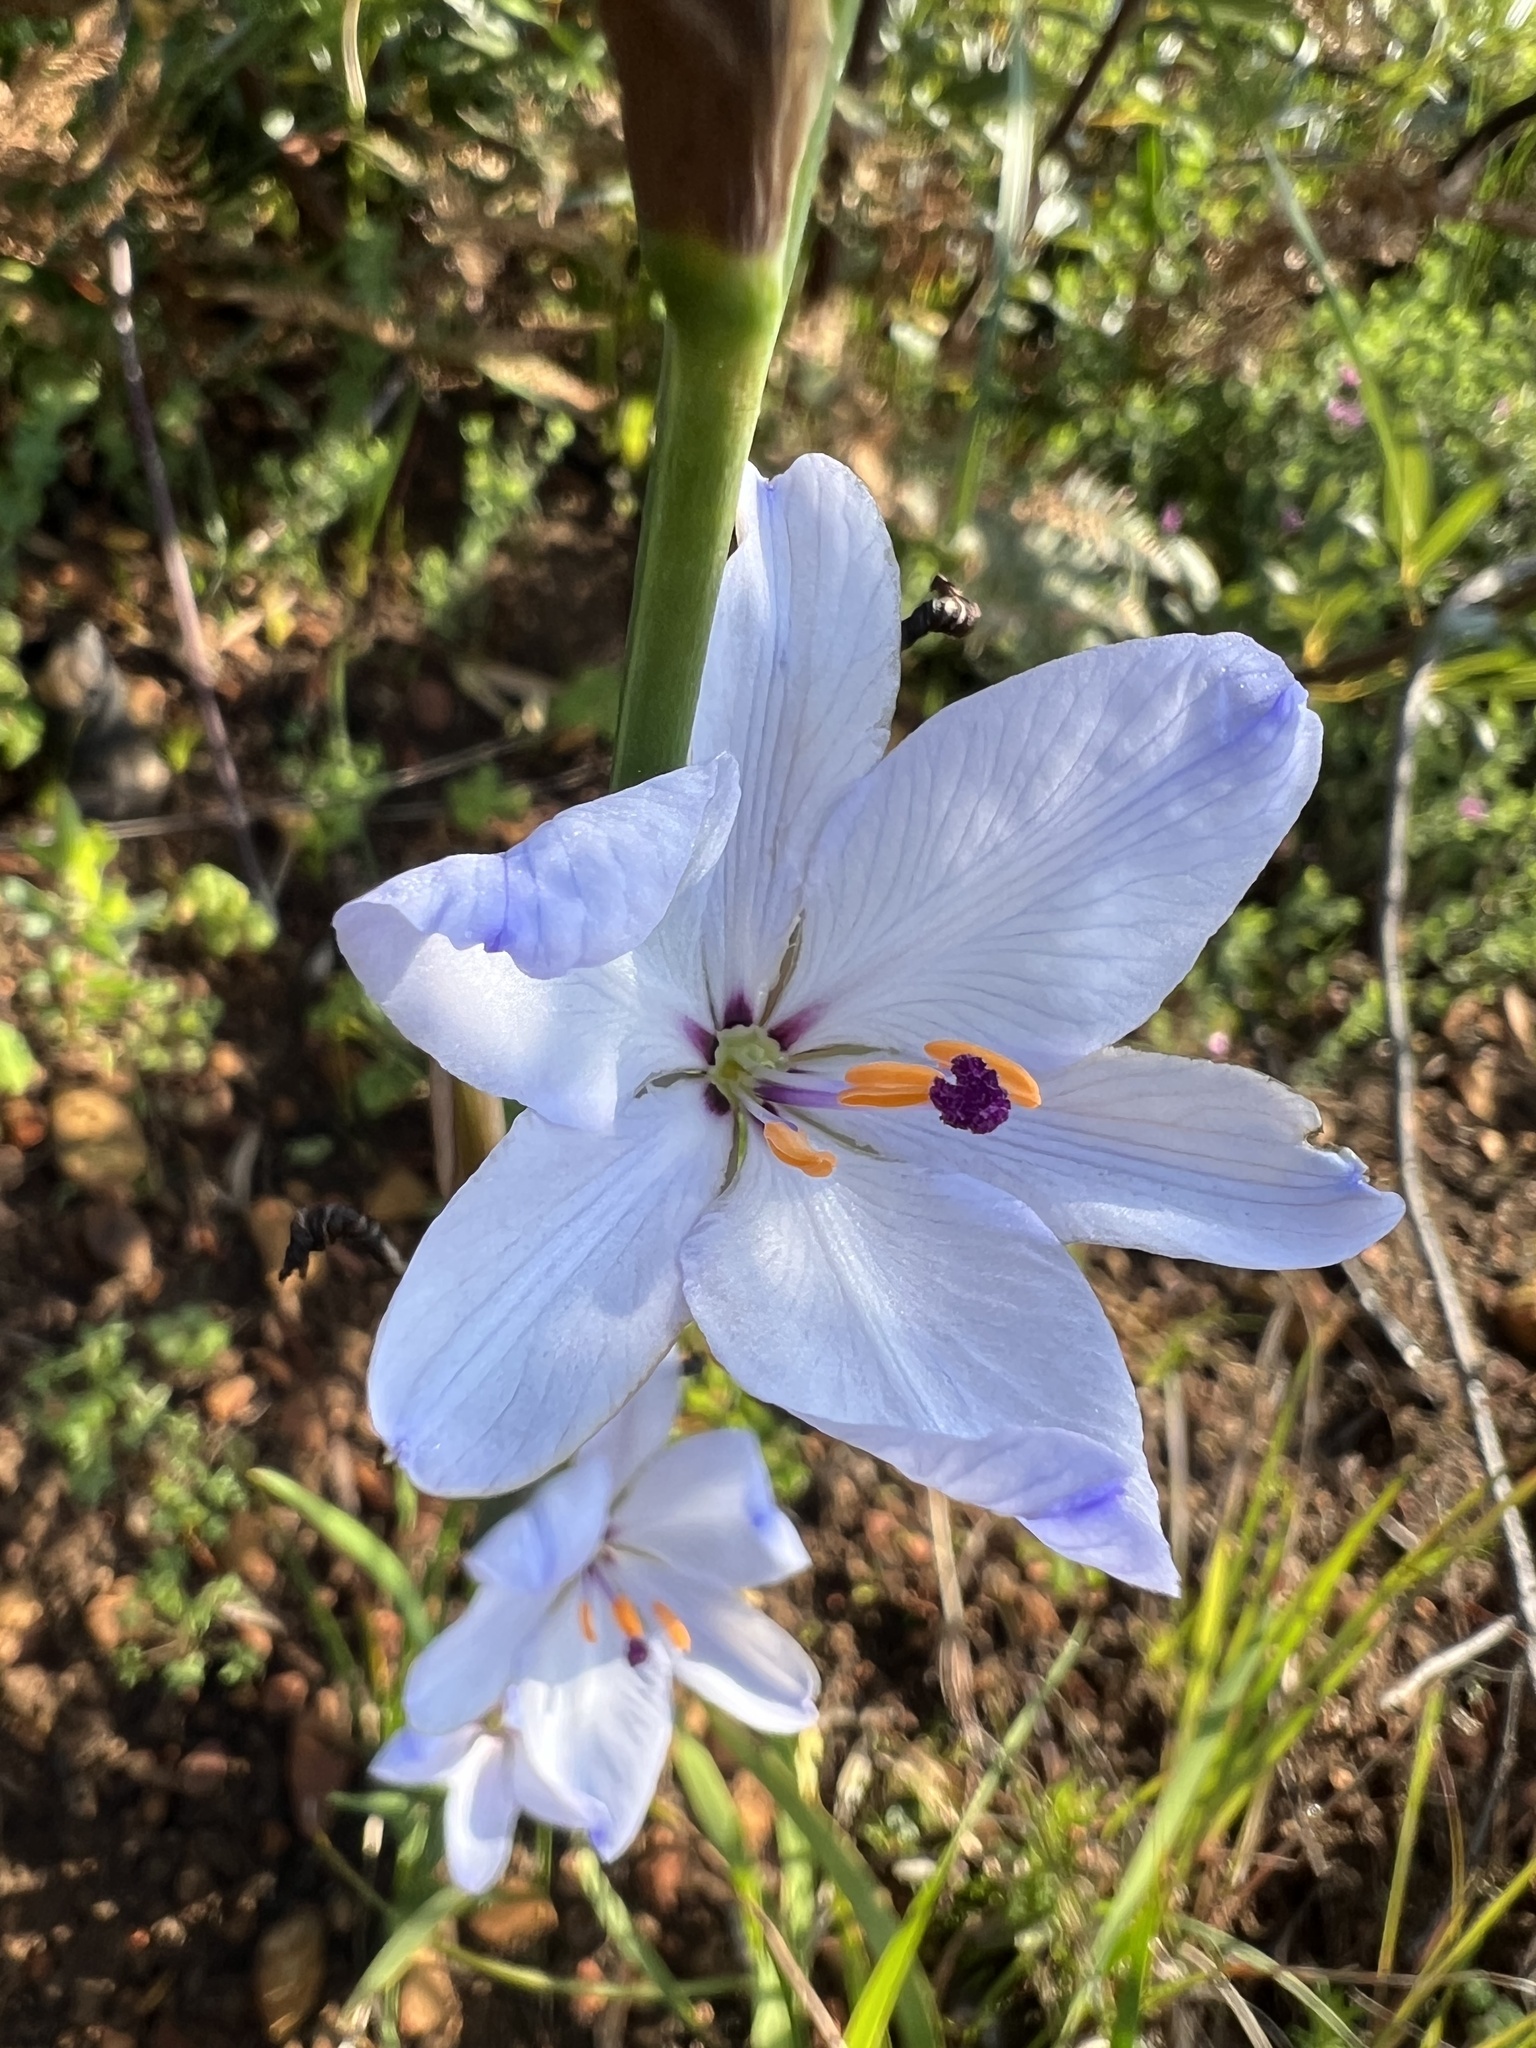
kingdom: Plantae
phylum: Tracheophyta
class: Liliopsida
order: Asparagales
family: Iridaceae
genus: Aristea
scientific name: Aristea spiralis
